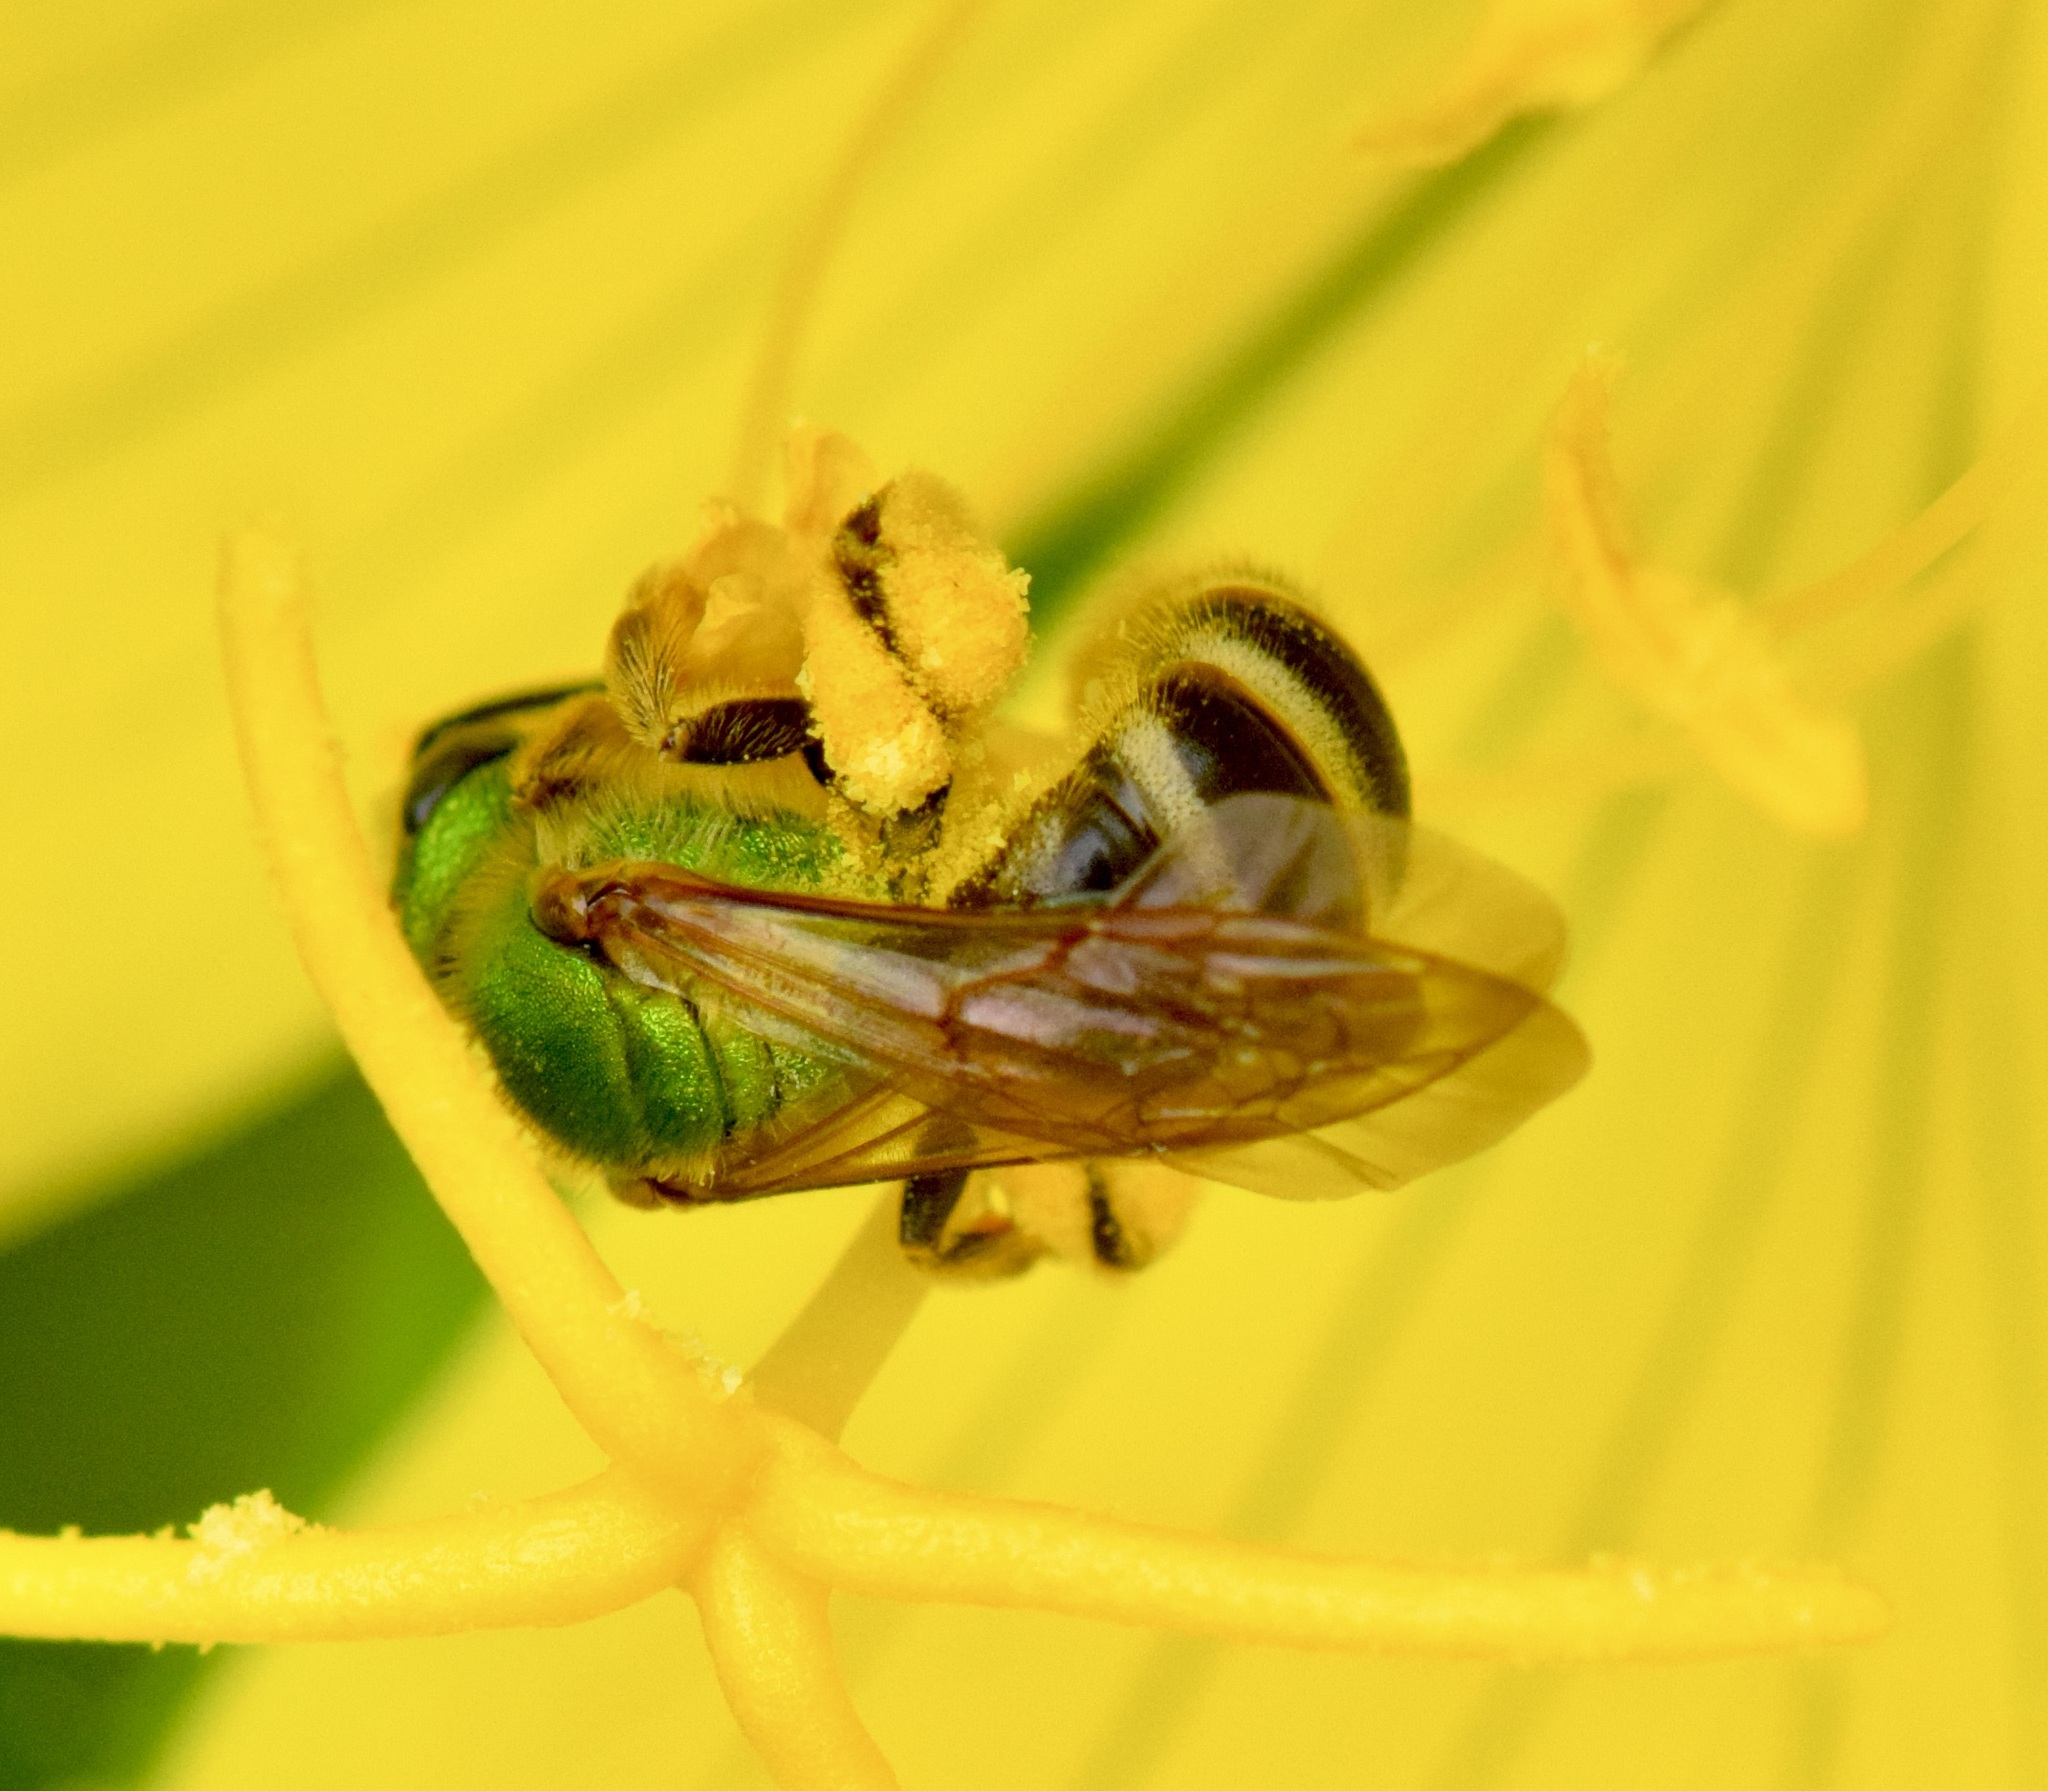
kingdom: Animalia
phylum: Arthropoda
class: Insecta
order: Hymenoptera
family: Halictidae
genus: Agapostemon
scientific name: Agapostemon virescens
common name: Bicolored striped sweat bee
